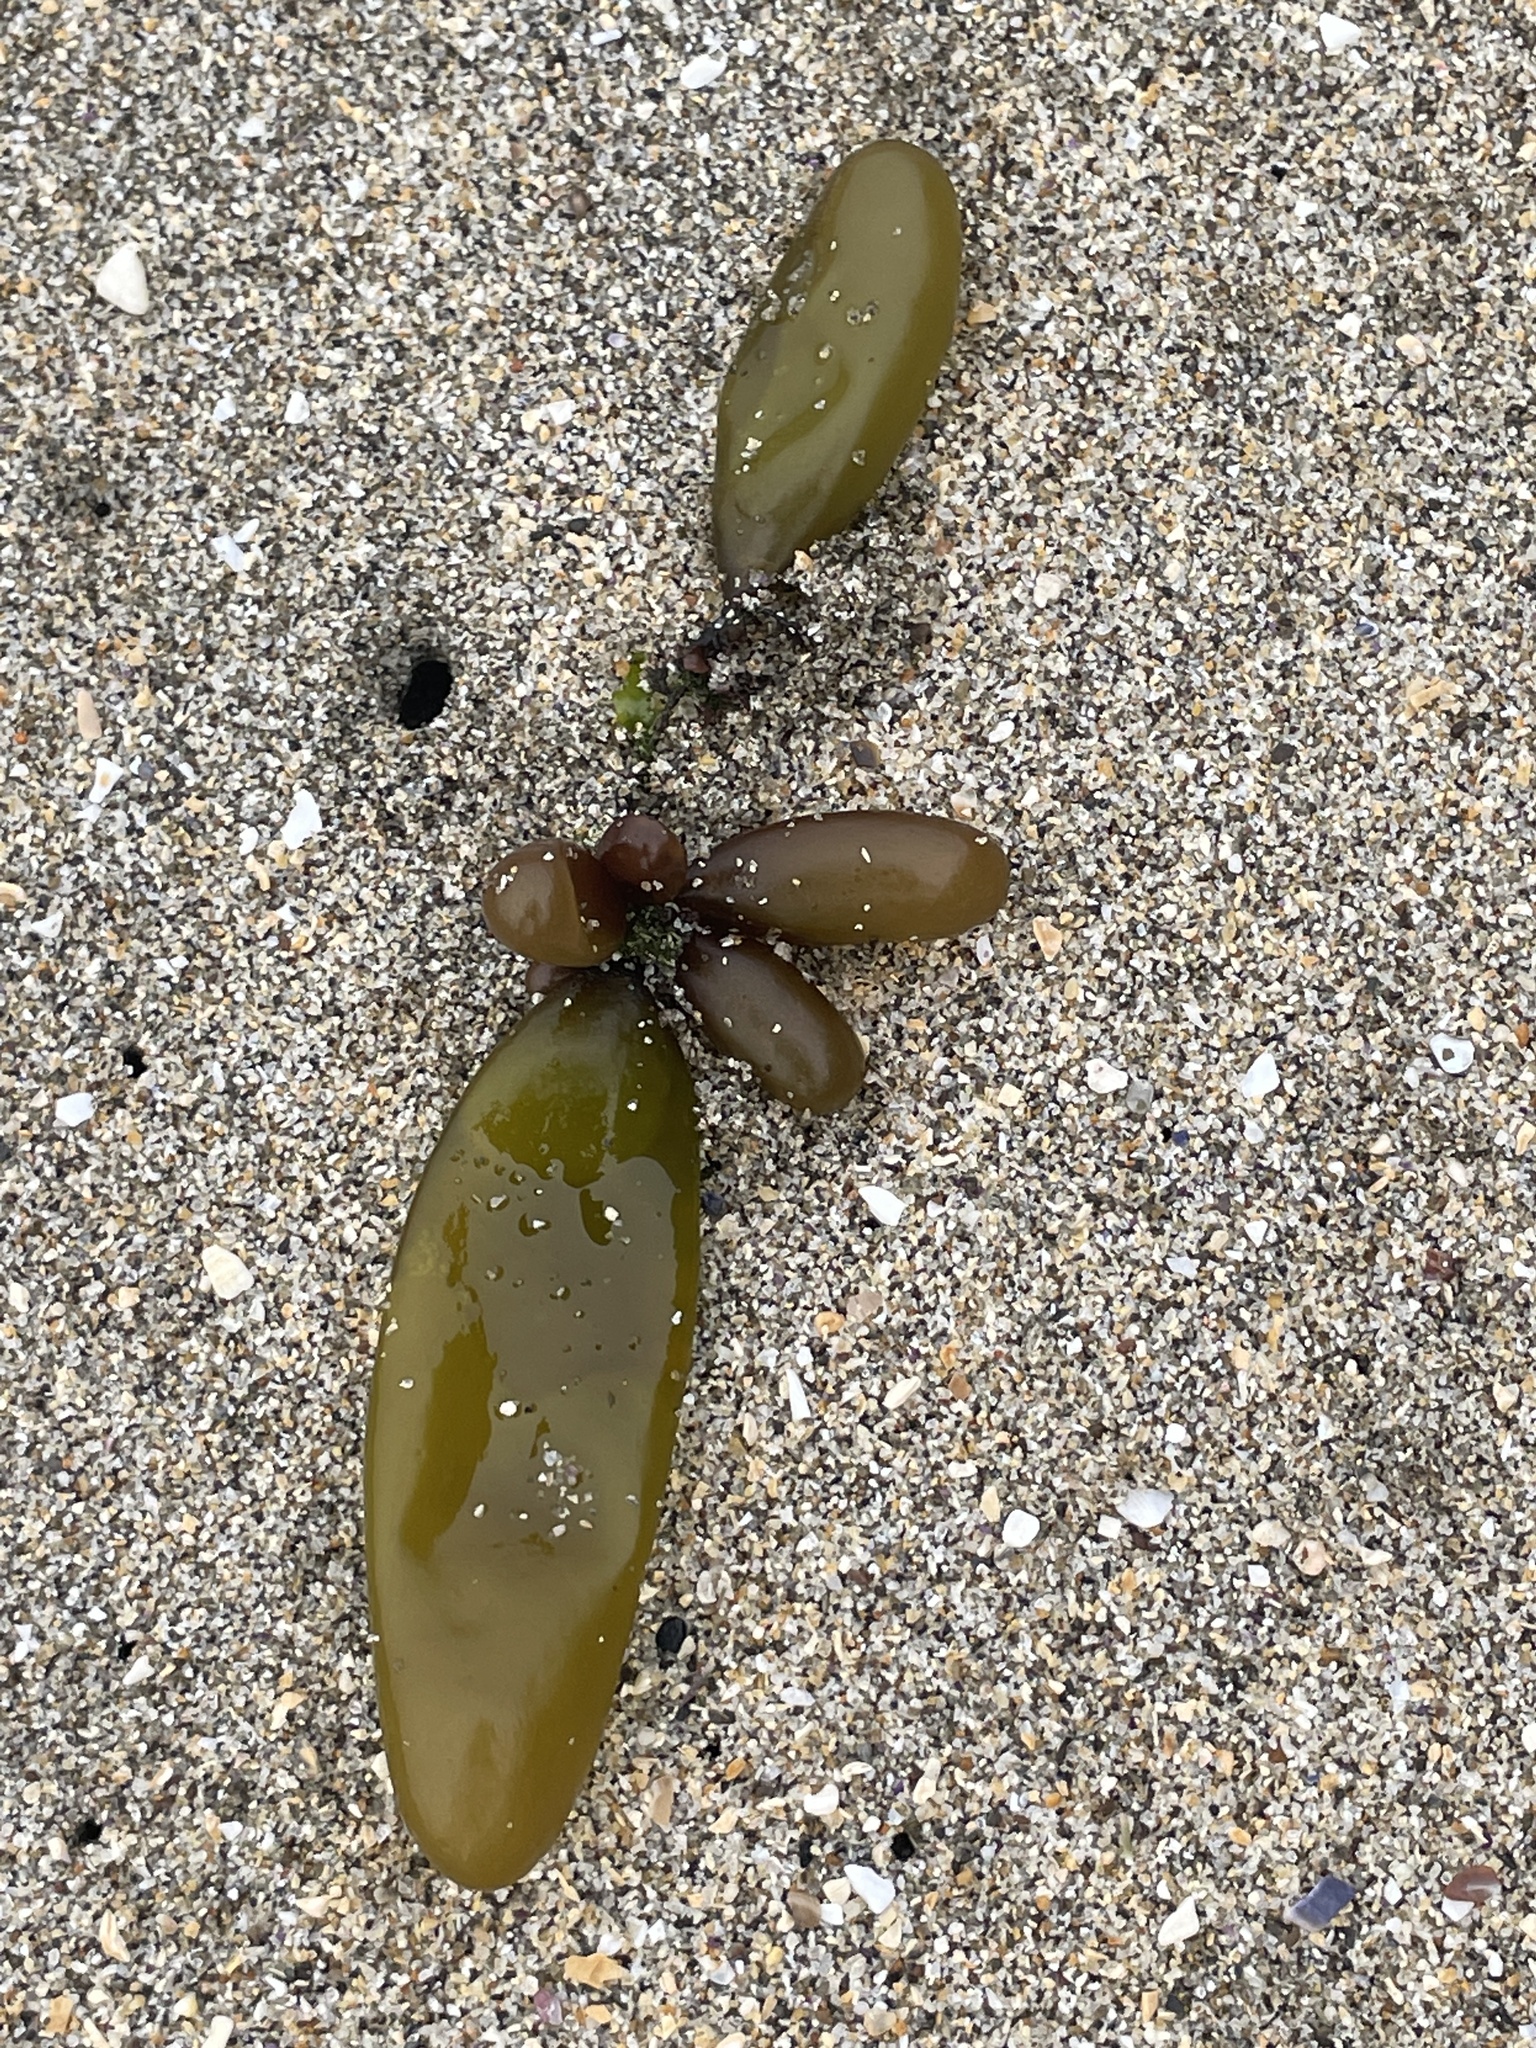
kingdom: Plantae
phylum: Rhodophyta
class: Florideophyceae
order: Palmariales
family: Palmariaceae
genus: Halosaccion
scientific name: Halosaccion glandiforme
